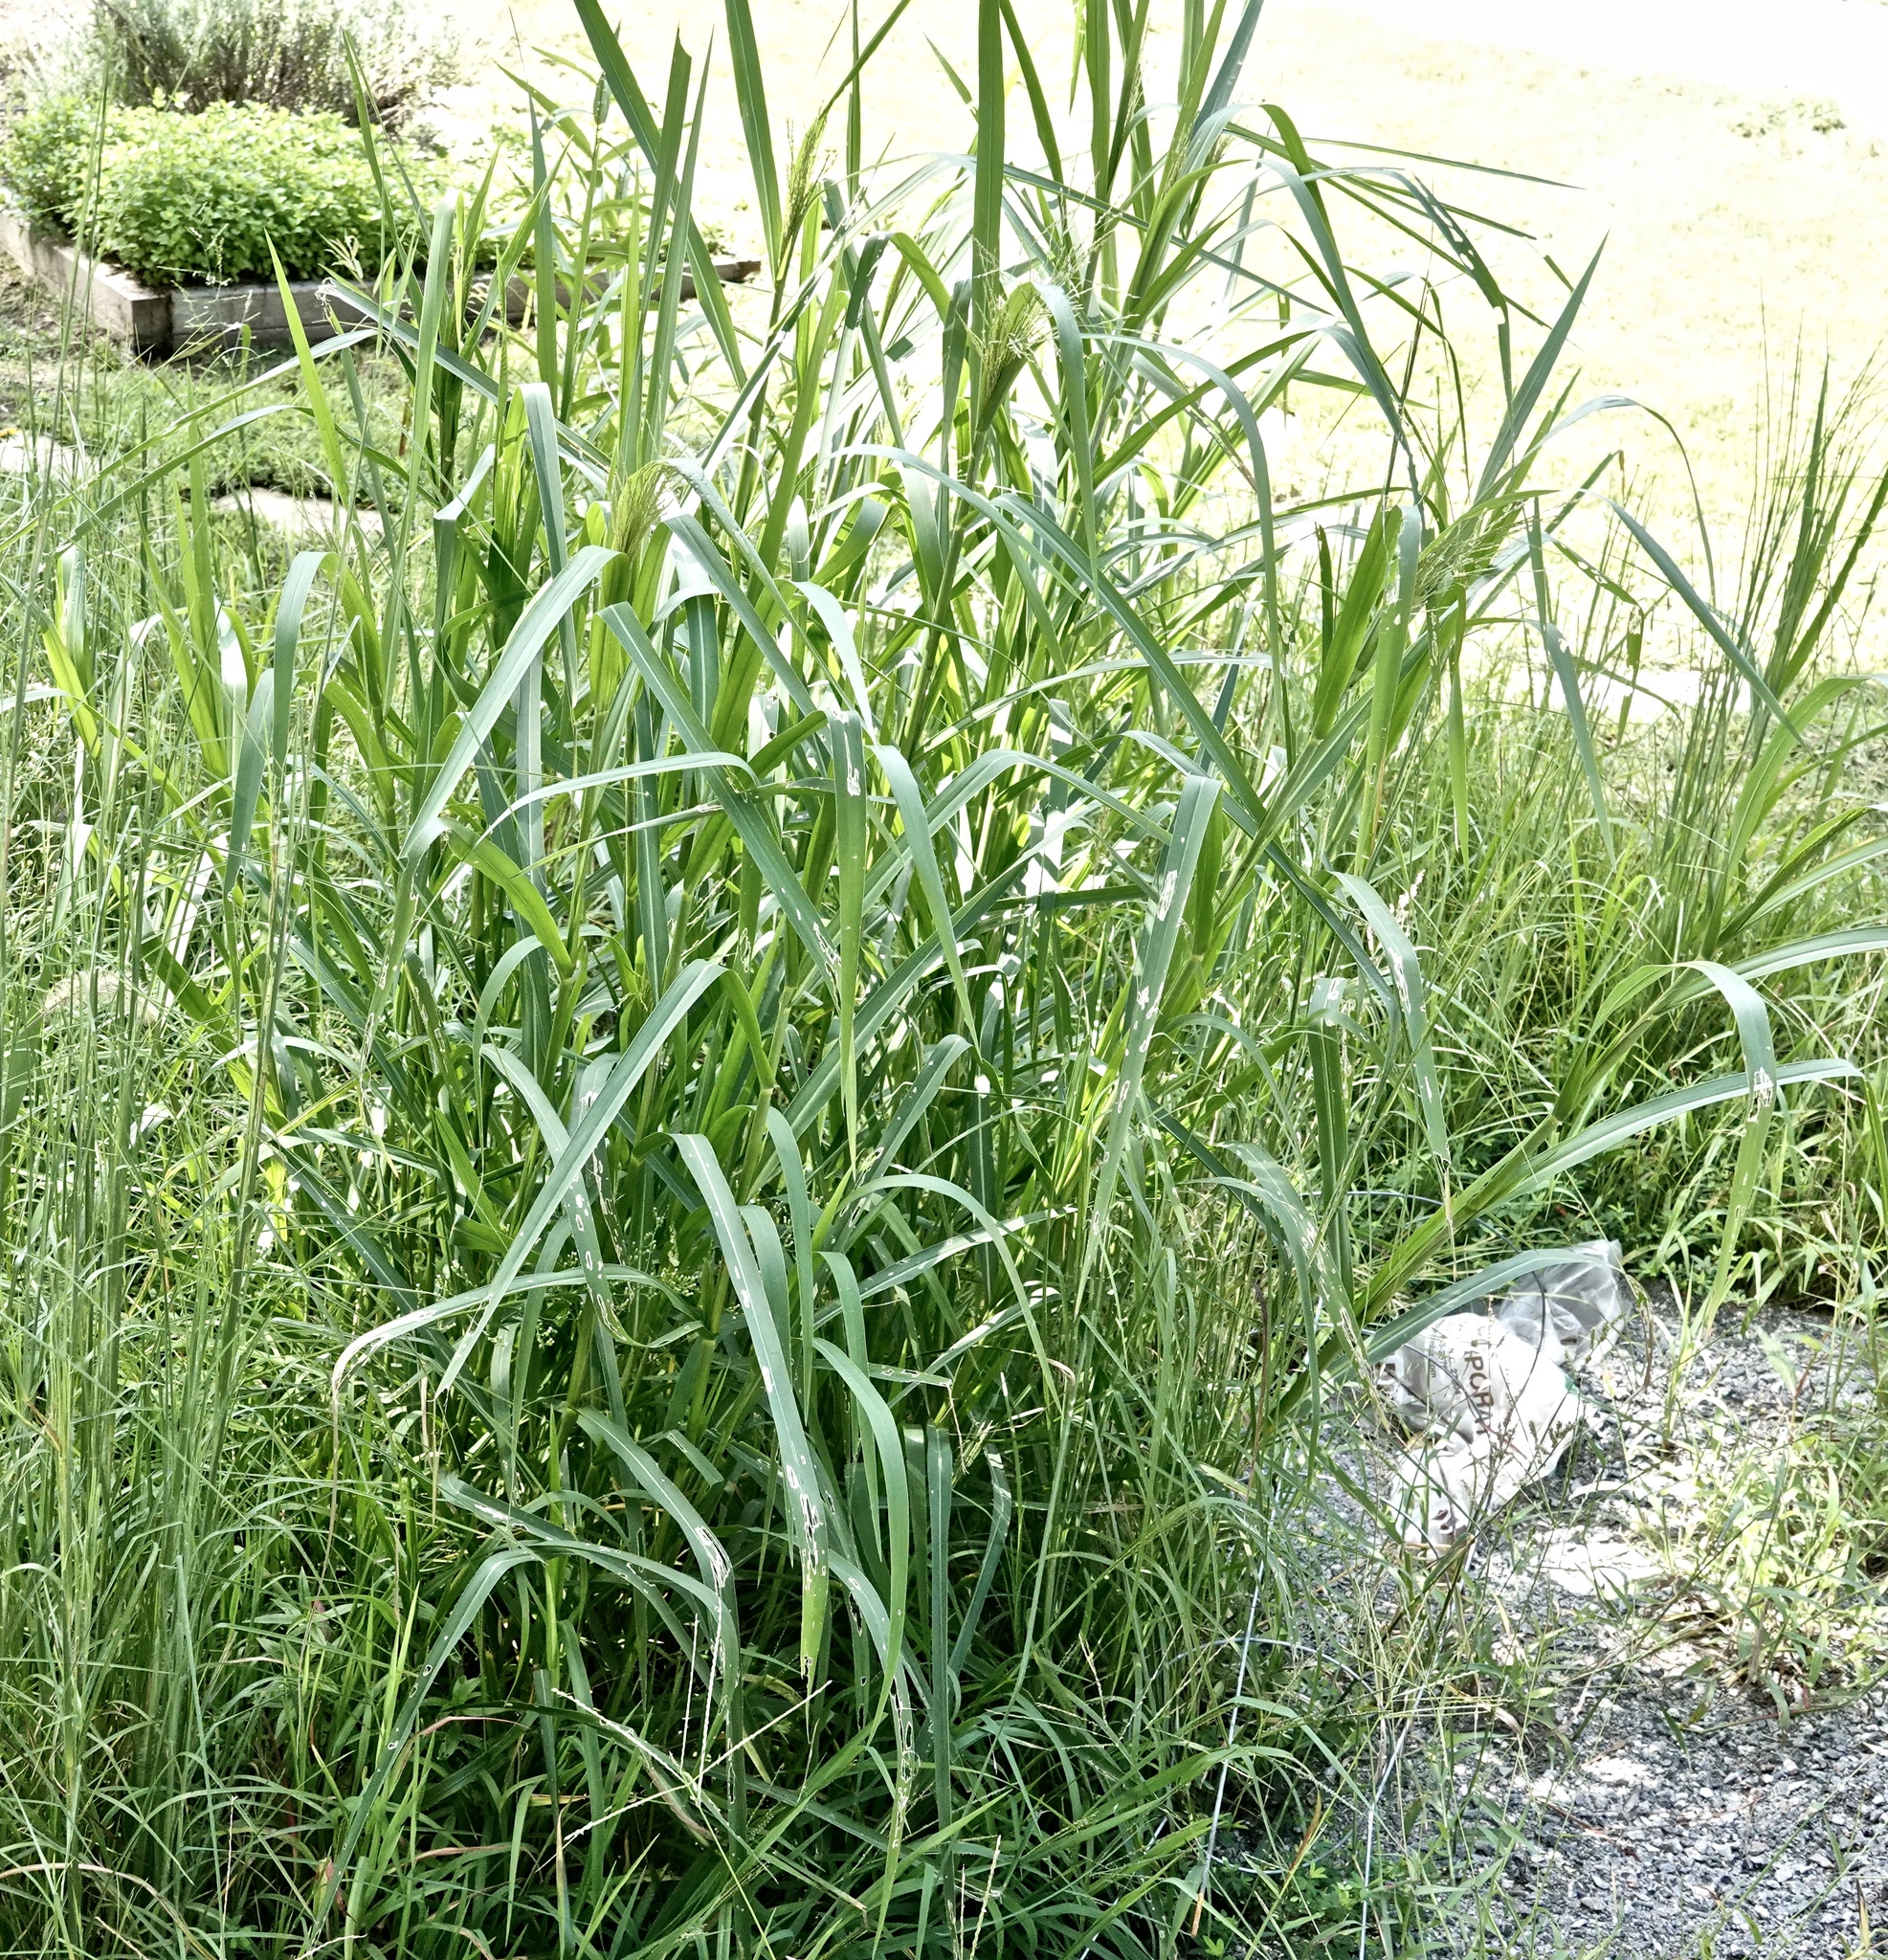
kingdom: Plantae
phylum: Tracheophyta
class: Liliopsida
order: Poales
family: Poaceae
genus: Panicum
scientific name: Panicum dichotomiflorum
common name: Autumn millet
